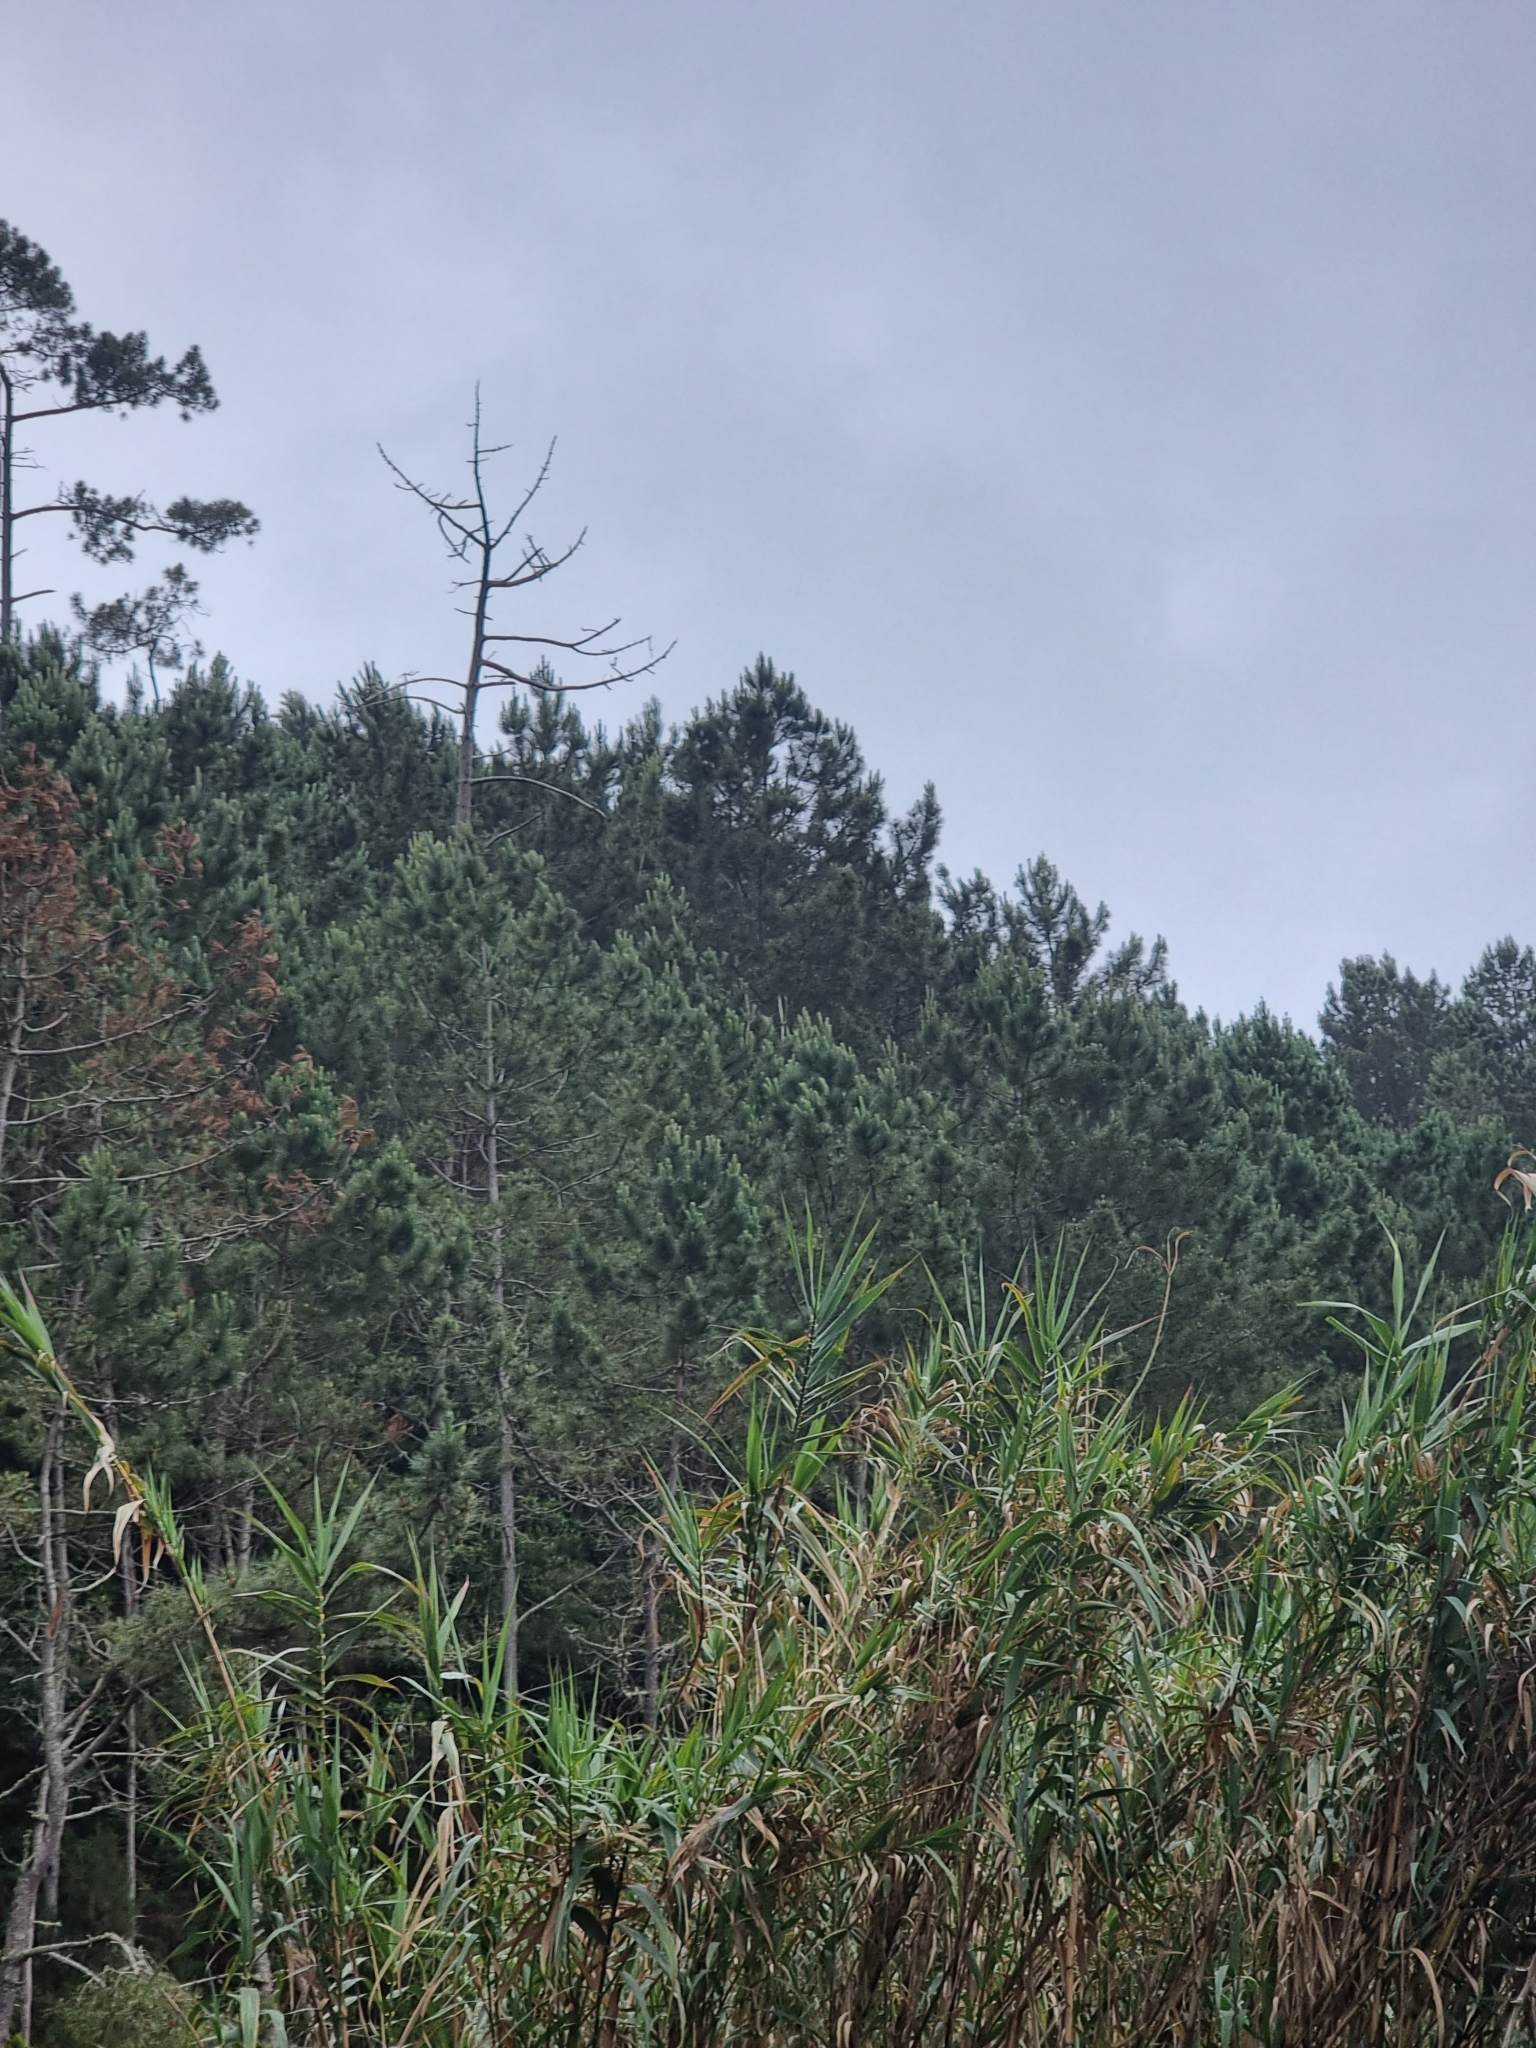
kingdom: Plantae
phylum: Tracheophyta
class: Pinopsida
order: Pinales
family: Pinaceae
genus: Pinus
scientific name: Pinus pinaster
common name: Maritime pine
